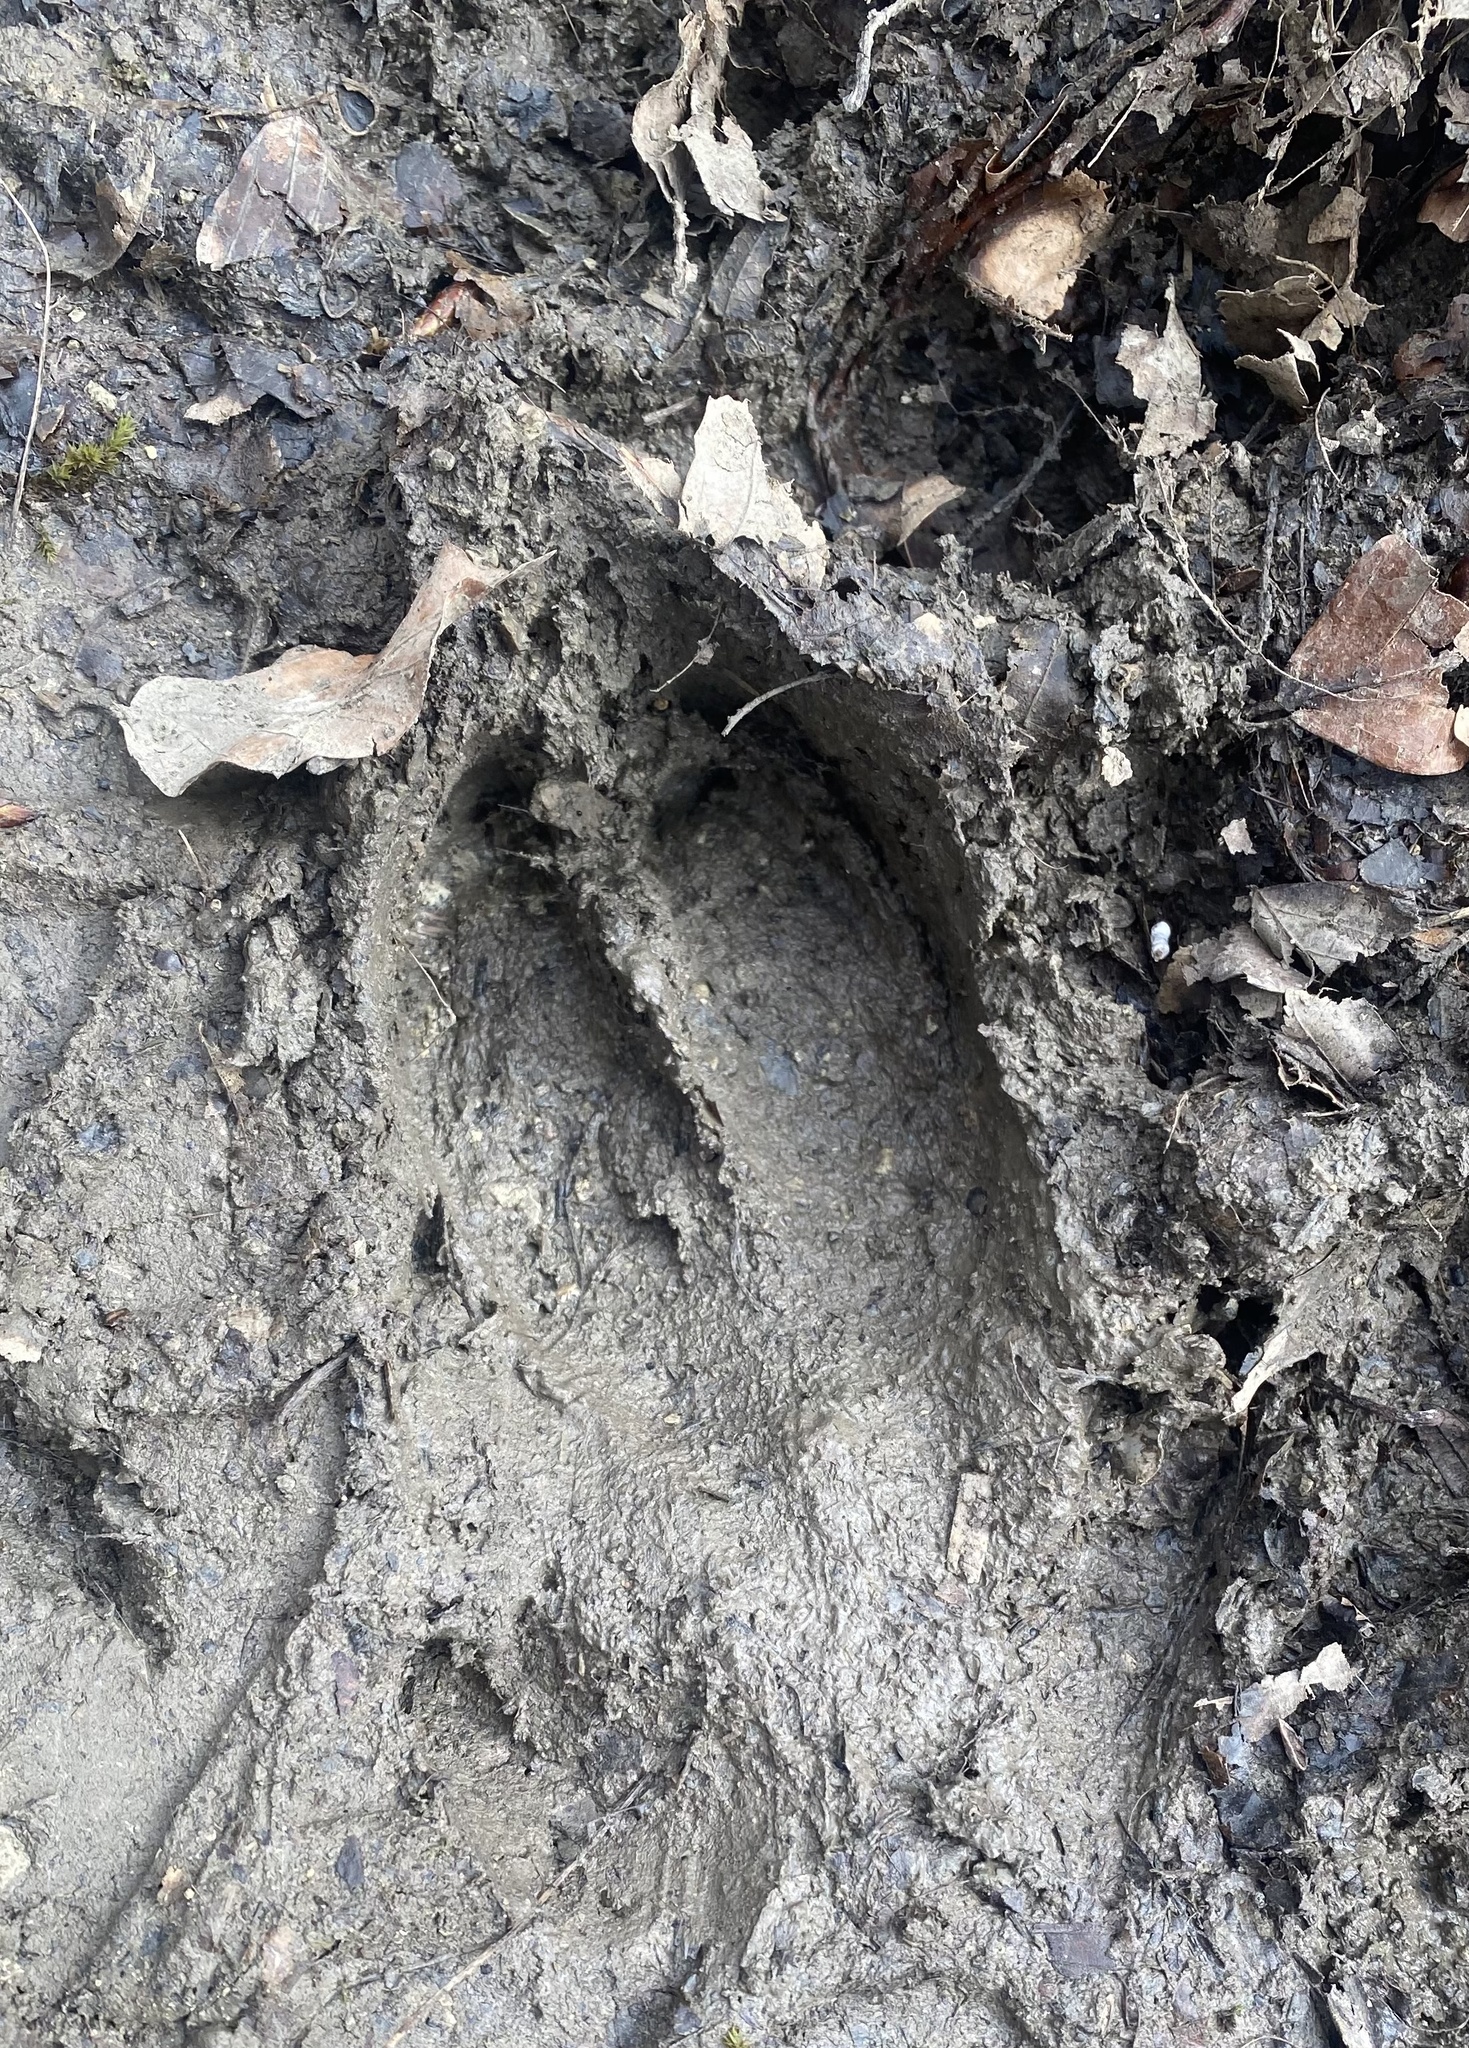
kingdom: Animalia
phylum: Chordata
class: Mammalia
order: Artiodactyla
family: Suidae
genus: Sus
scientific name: Sus scrofa
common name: Wild boar
